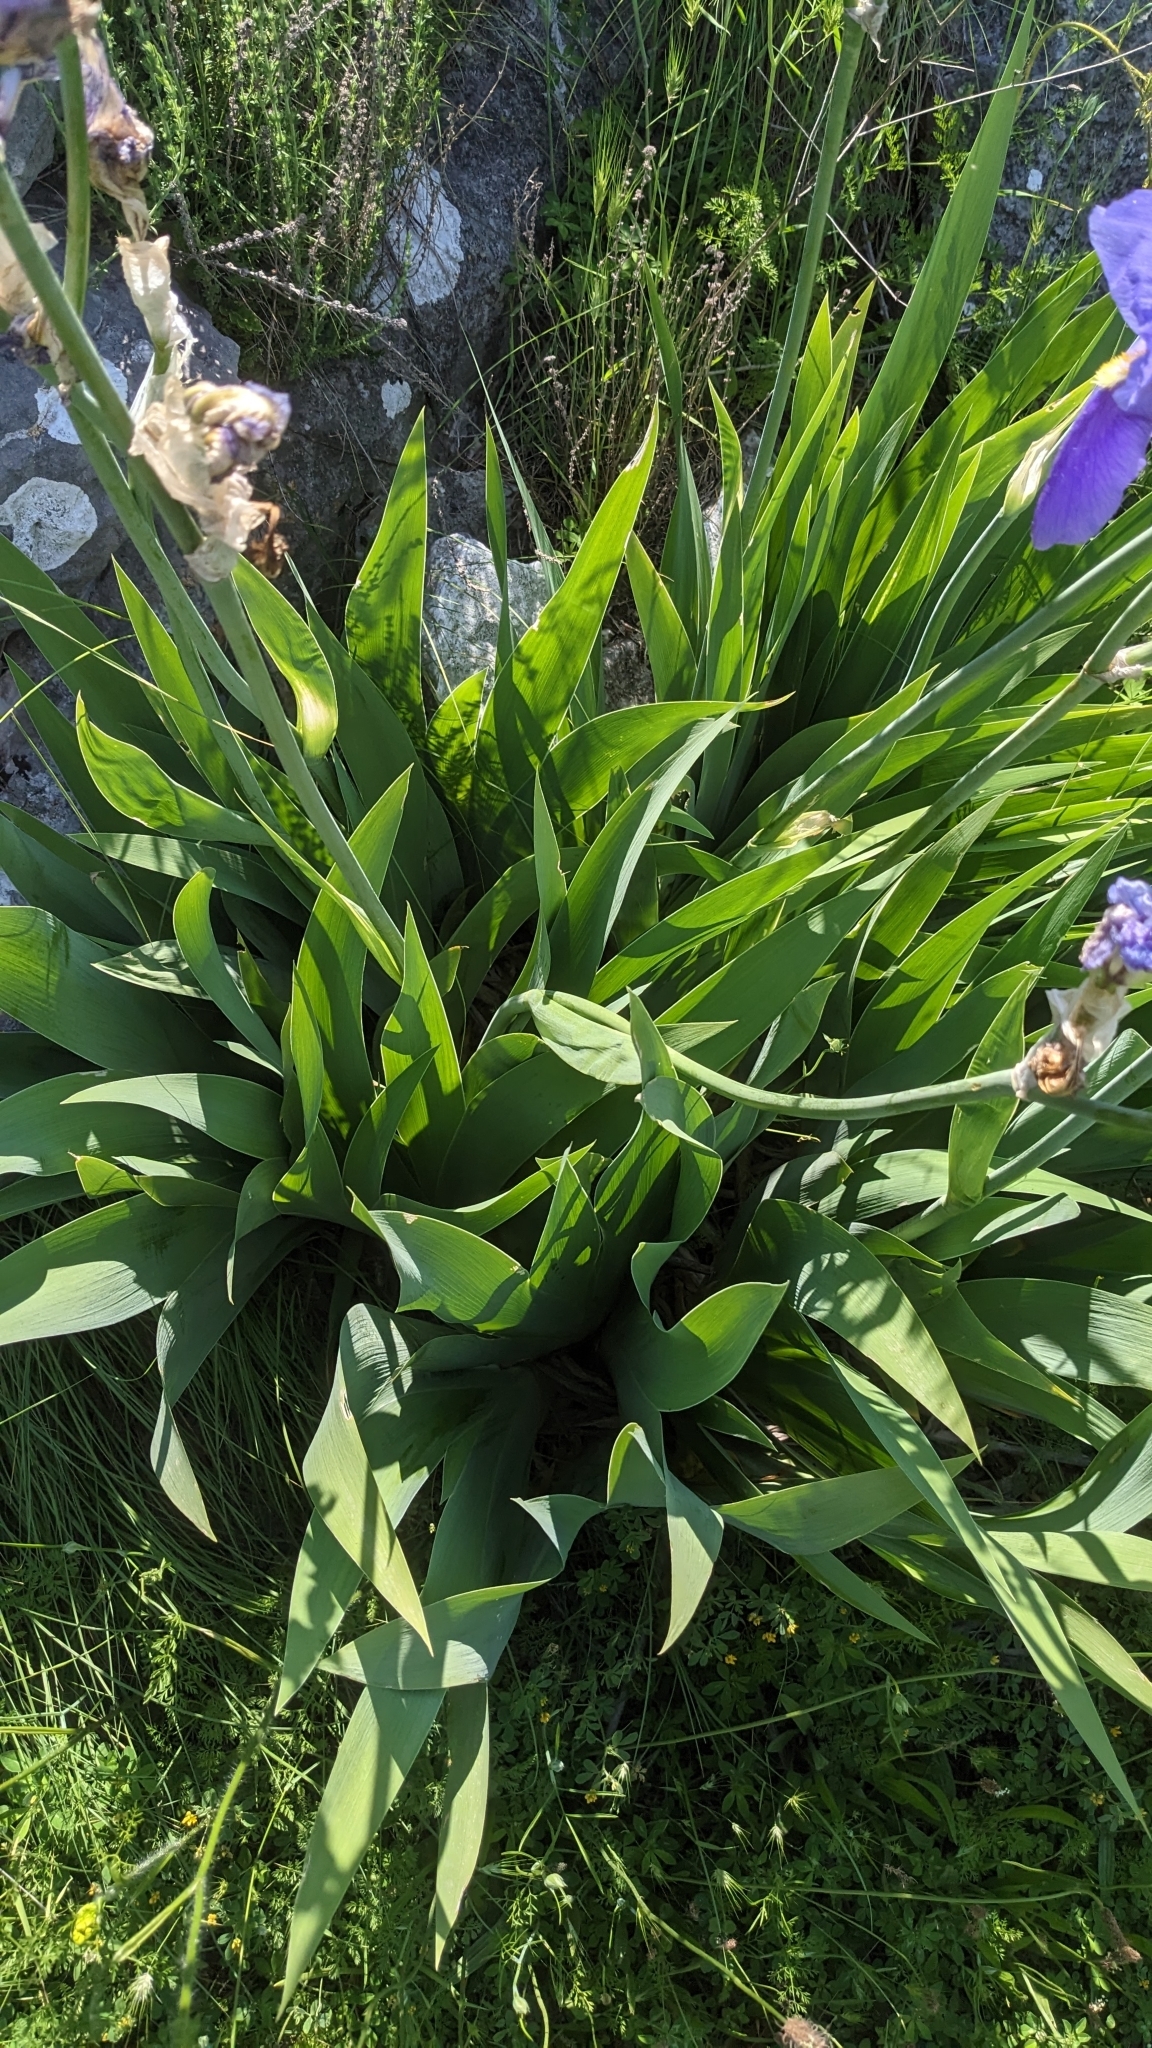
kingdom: Plantae
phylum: Tracheophyta
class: Liliopsida
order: Asparagales
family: Iridaceae
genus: Iris
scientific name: Iris pallida
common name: Sweet iris
